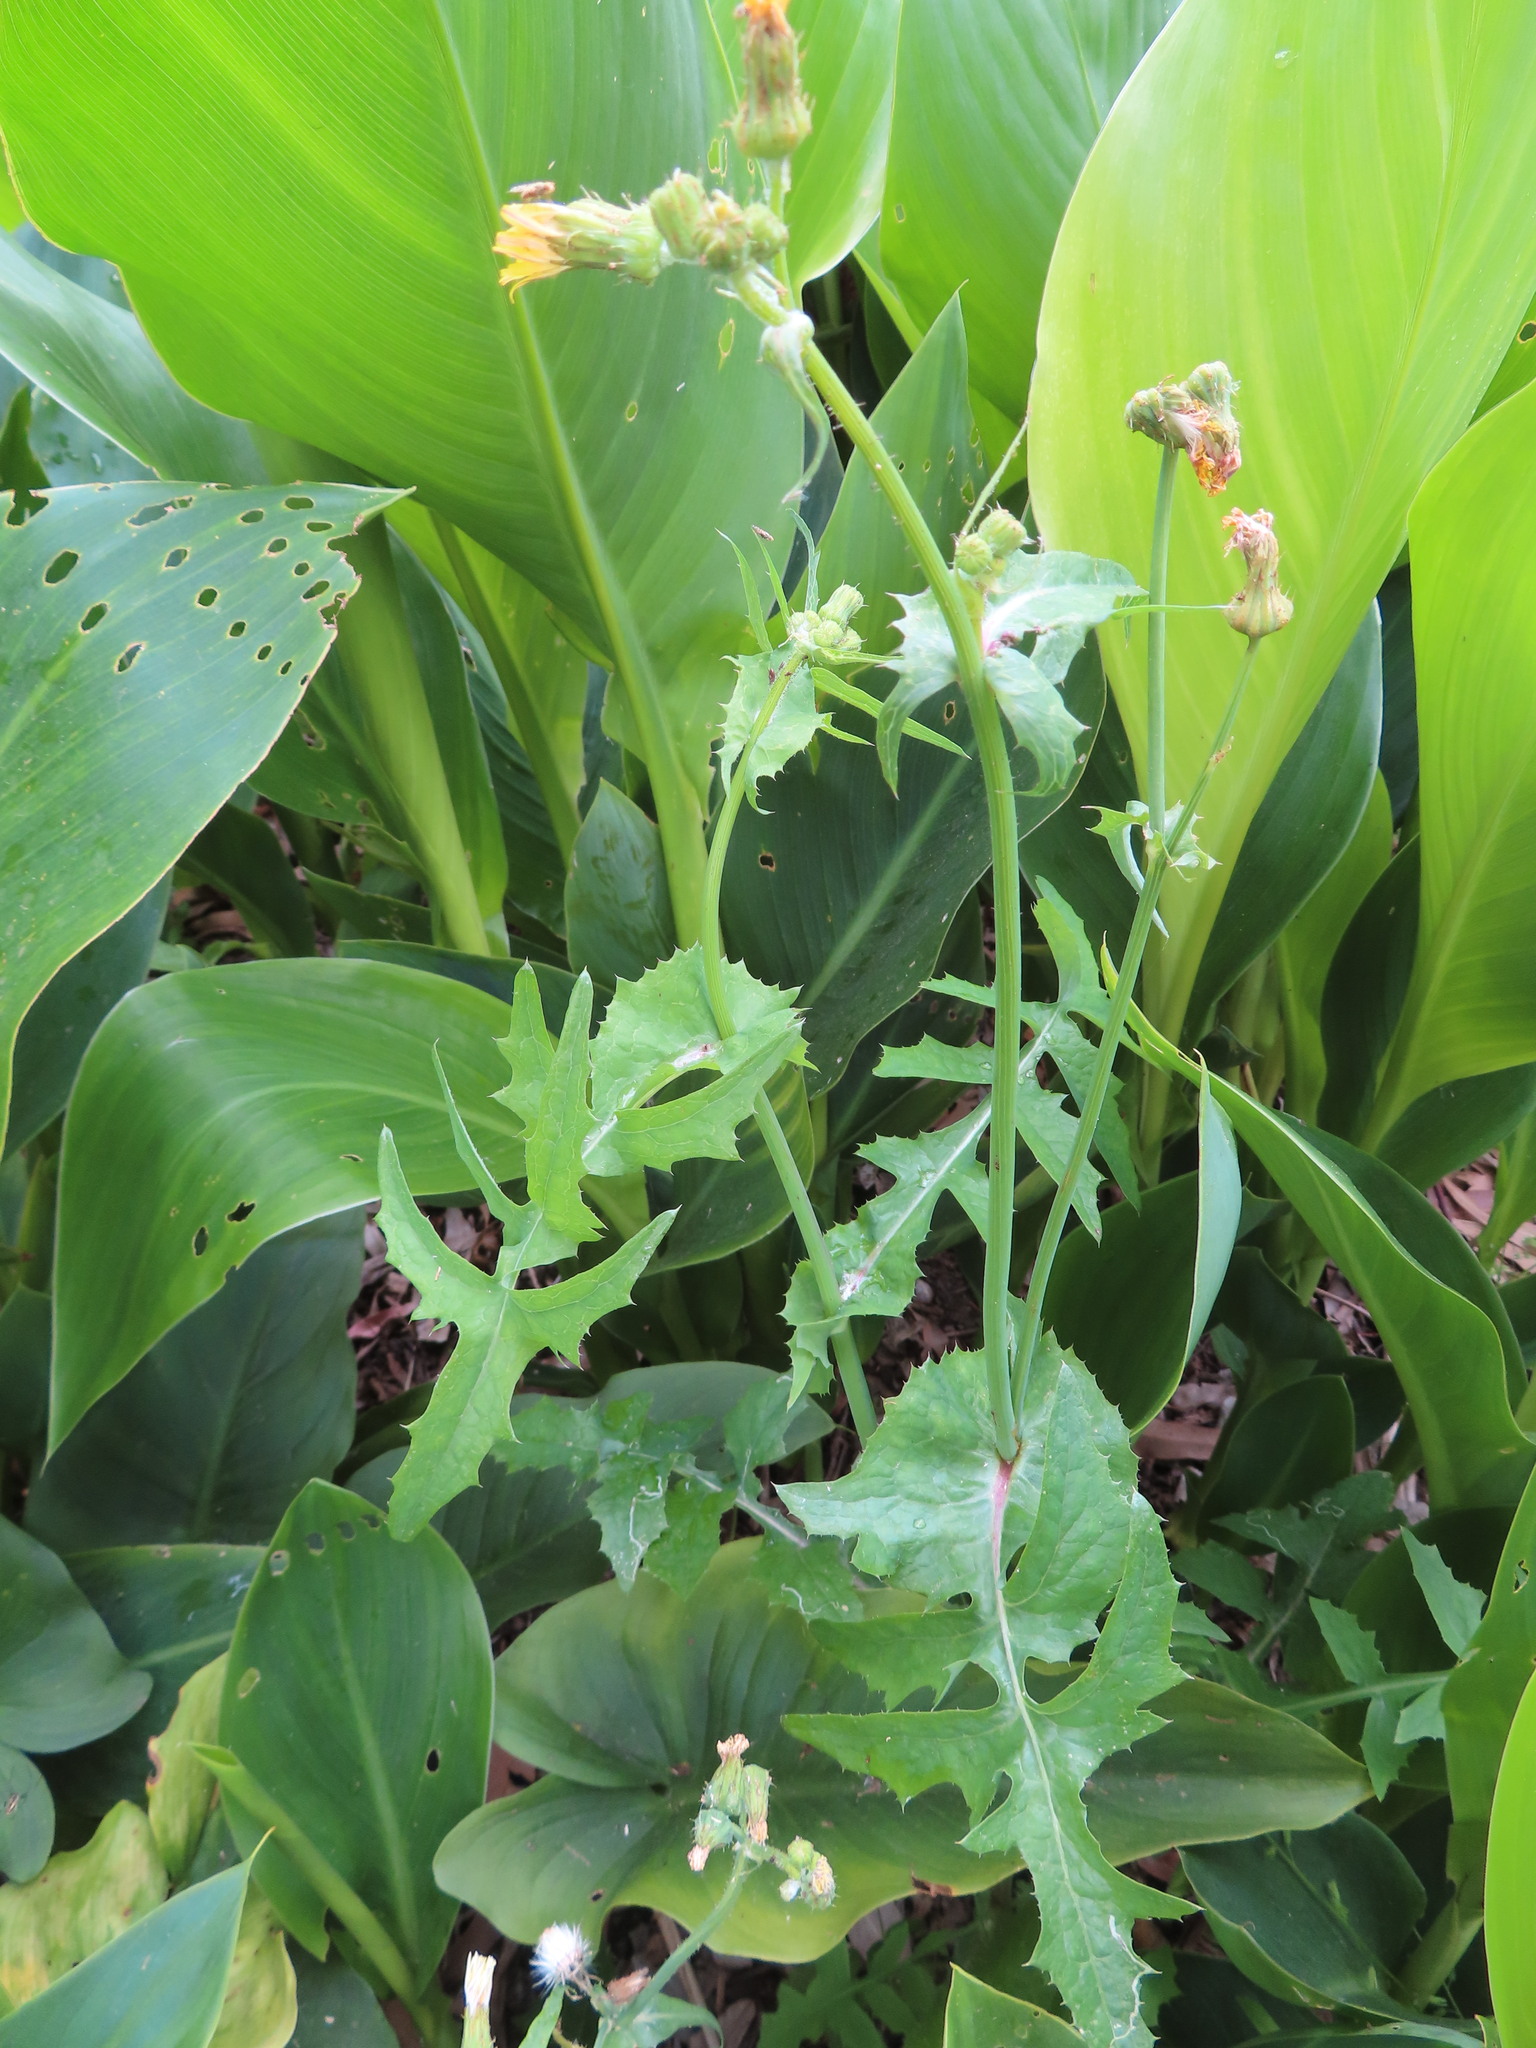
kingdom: Plantae
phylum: Tracheophyta
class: Magnoliopsida
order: Asterales
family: Asteraceae
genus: Sonchus
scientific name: Sonchus oleraceus
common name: Common sowthistle
